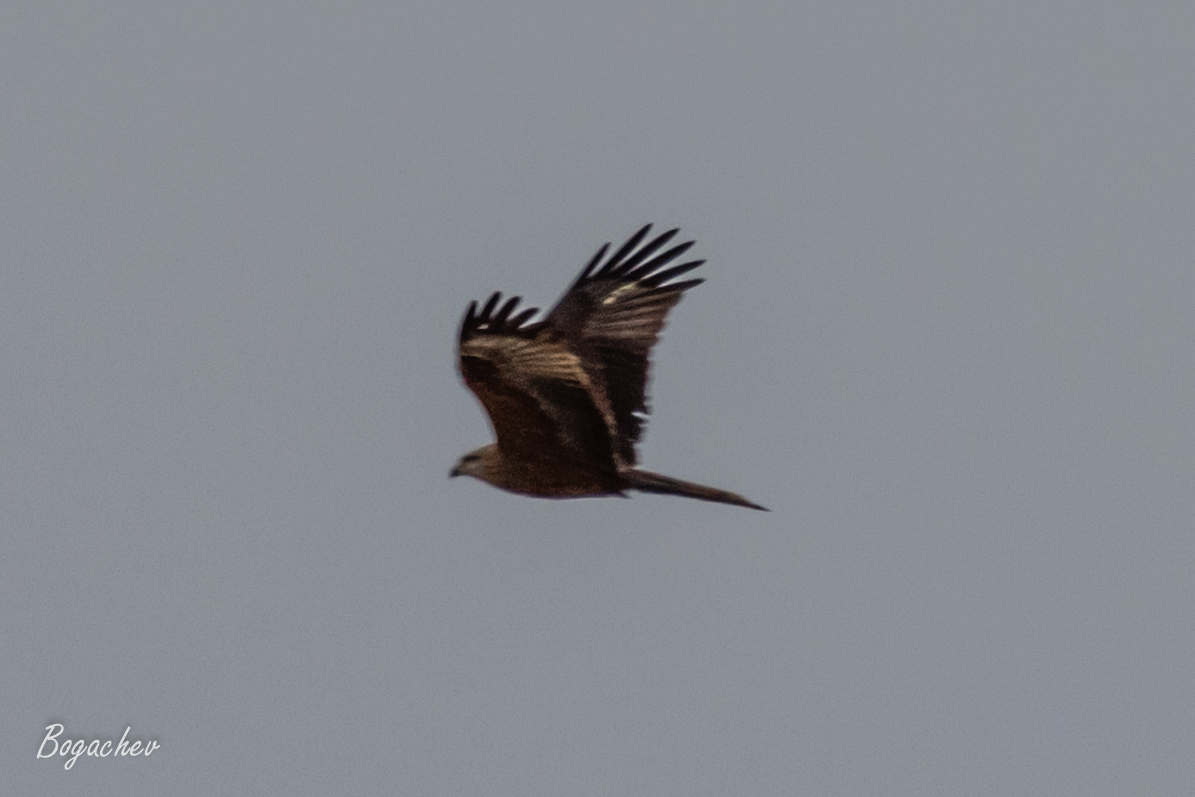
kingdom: Animalia
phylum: Chordata
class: Aves
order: Accipitriformes
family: Accipitridae
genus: Milvus
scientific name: Milvus migrans
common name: Black kite
